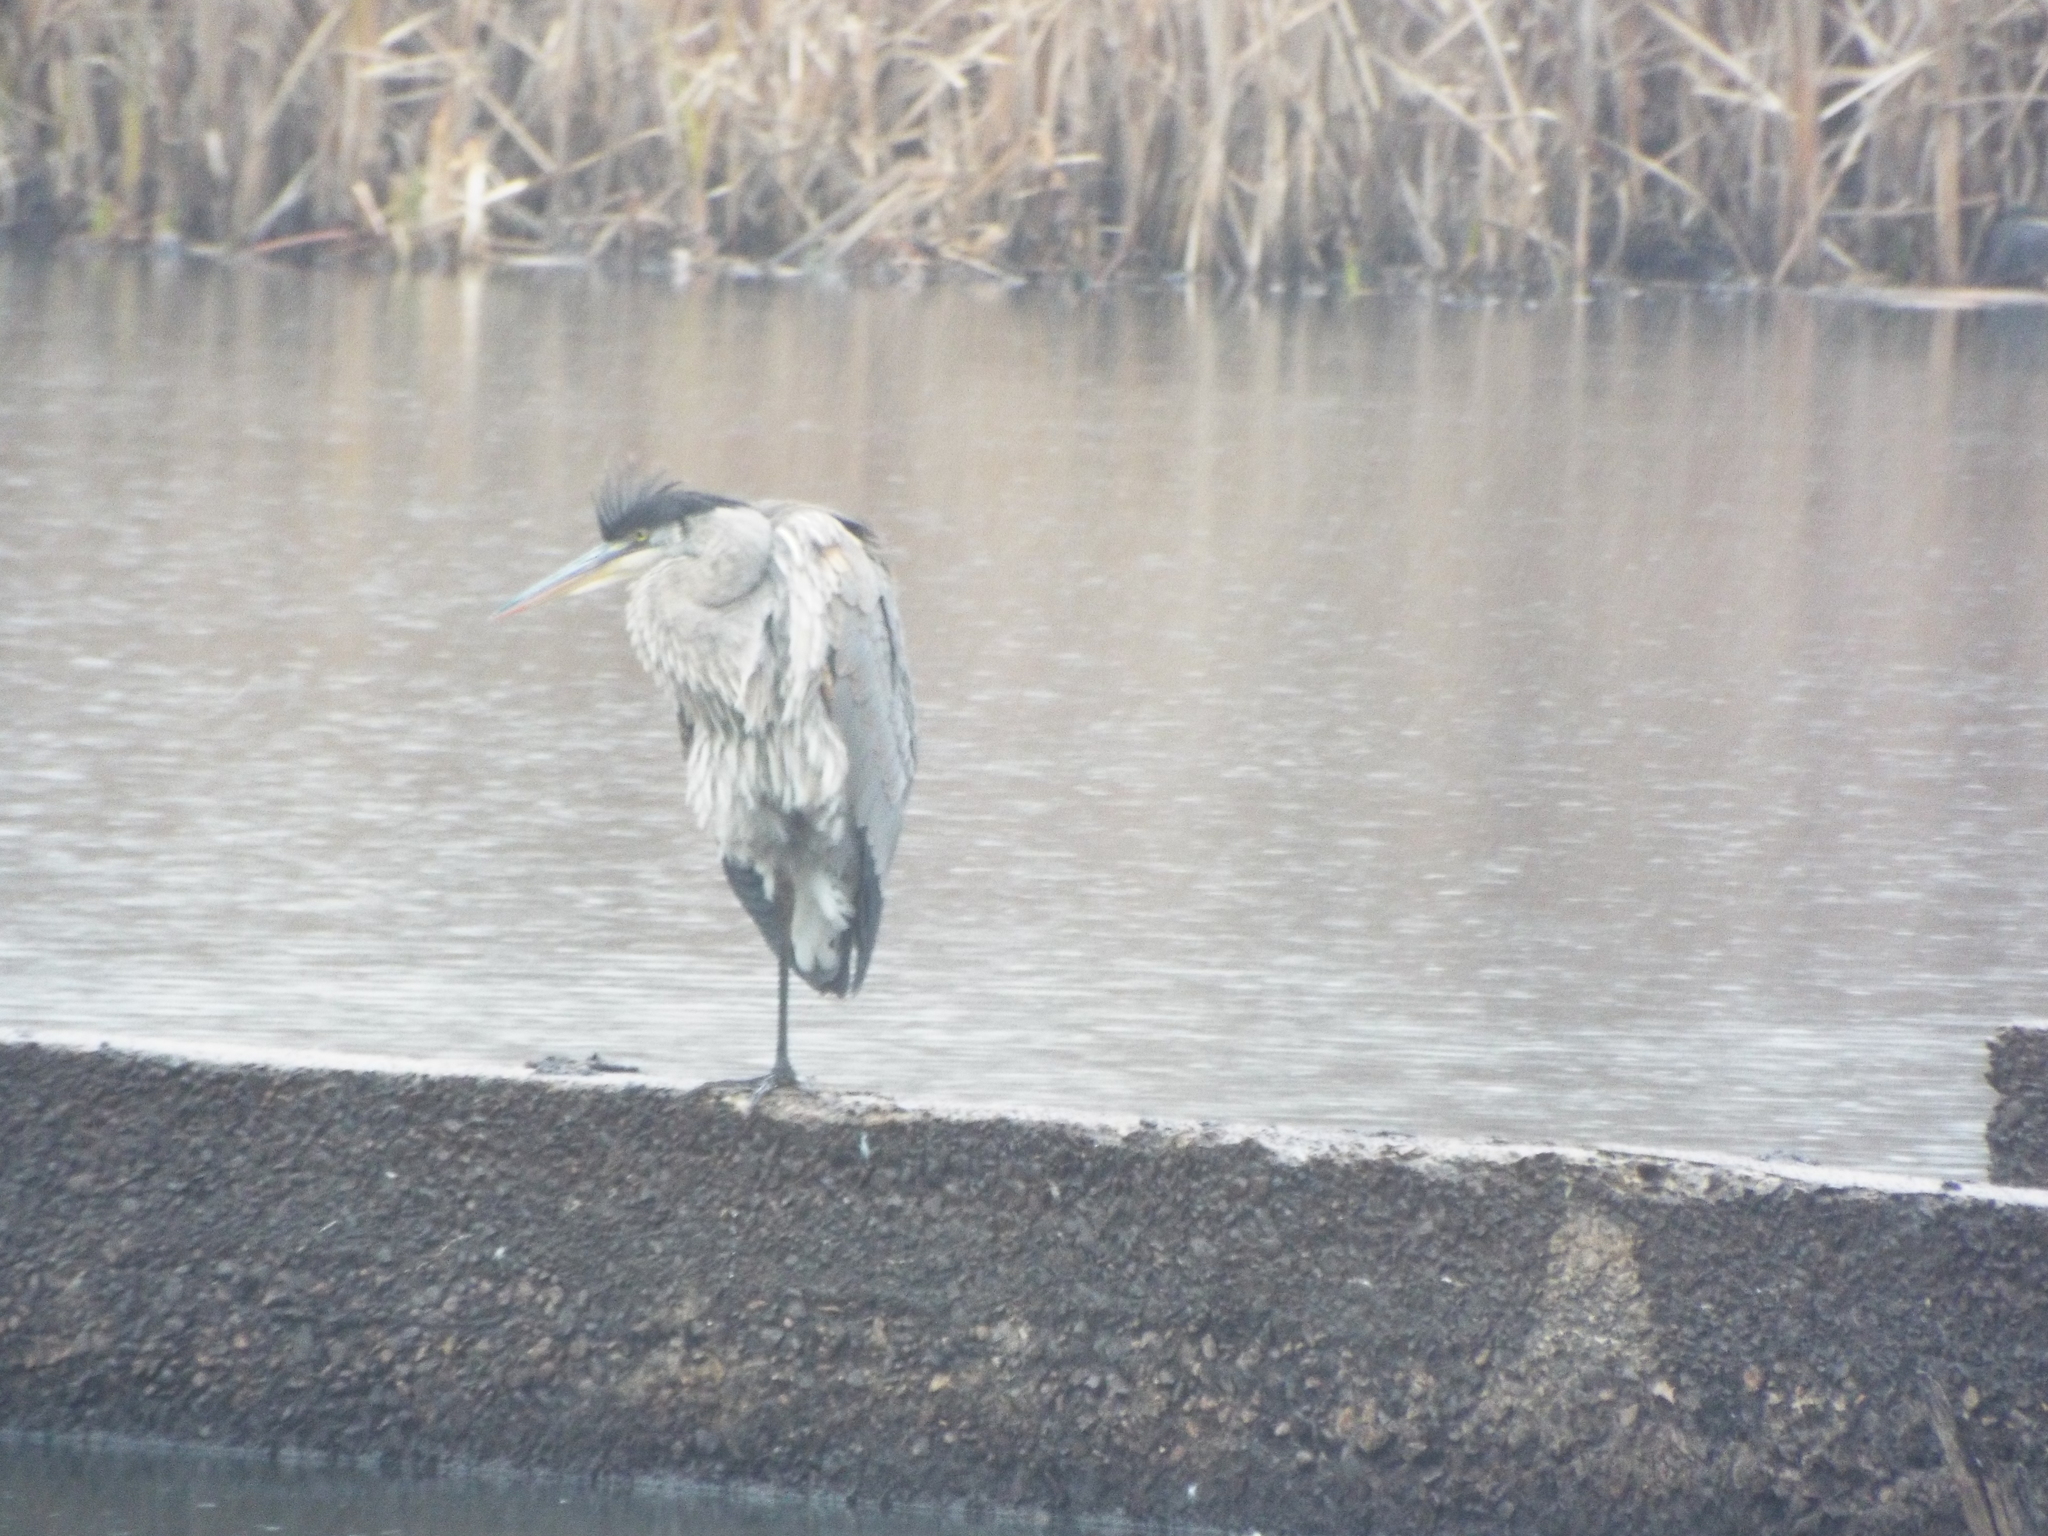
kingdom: Animalia
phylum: Chordata
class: Aves
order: Pelecaniformes
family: Ardeidae
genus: Ardea
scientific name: Ardea herodias
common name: Great blue heron
